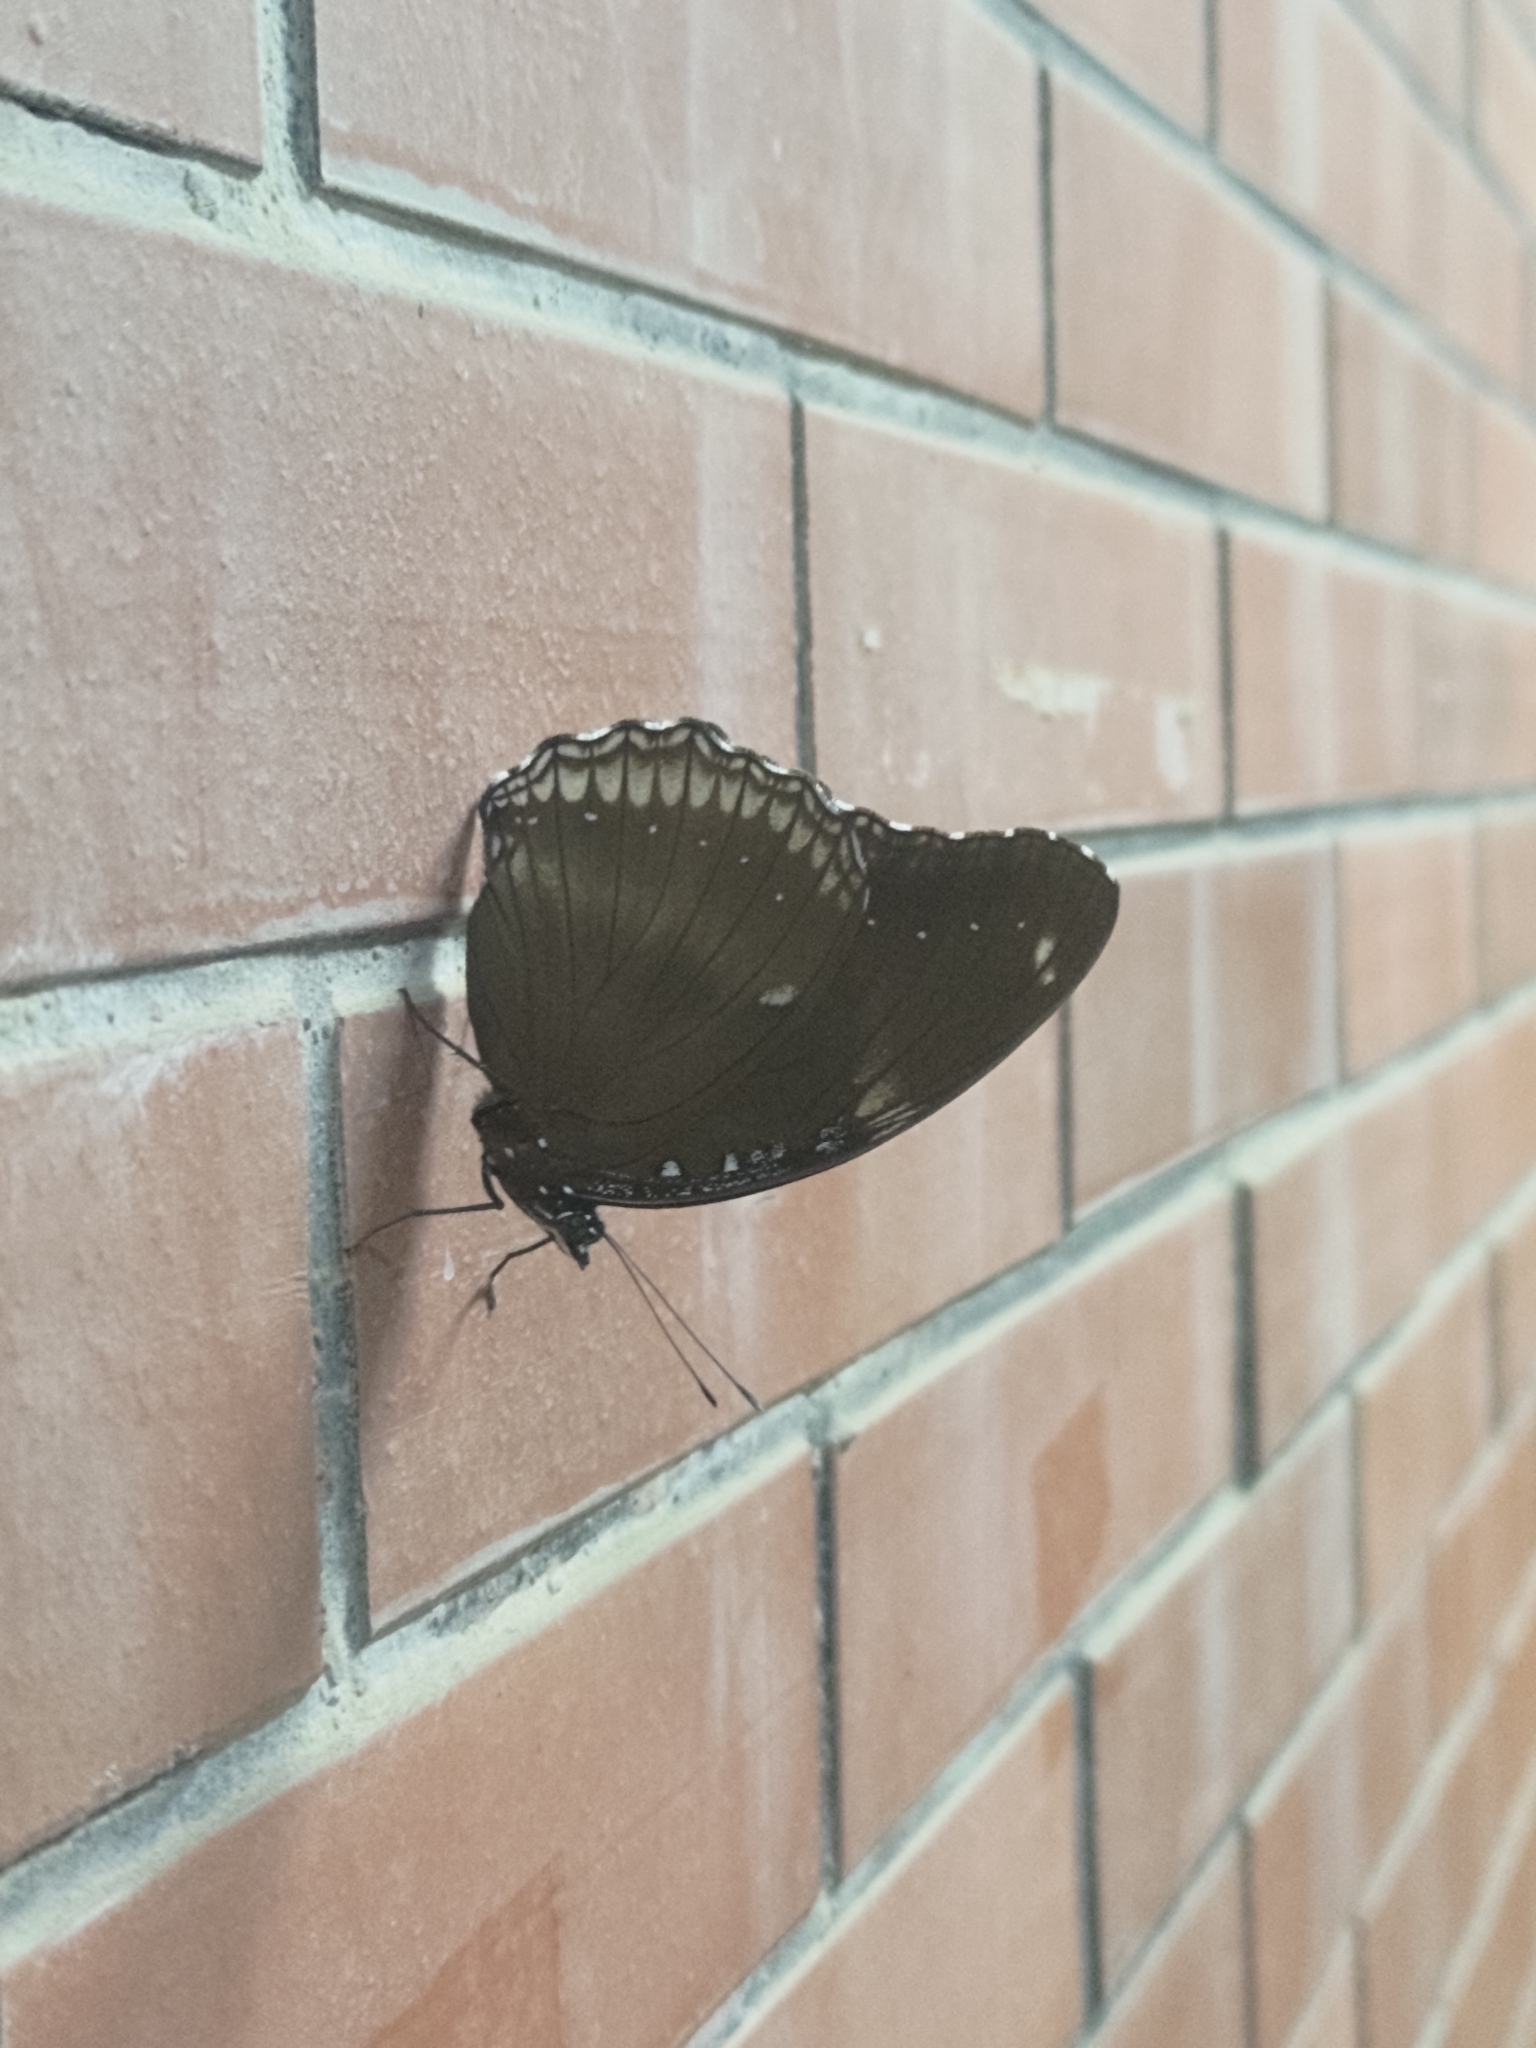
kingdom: Animalia
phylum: Arthropoda
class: Insecta
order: Lepidoptera
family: Nymphalidae
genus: Hypolimnas
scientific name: Hypolimnas bolina
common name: Great eggfly
